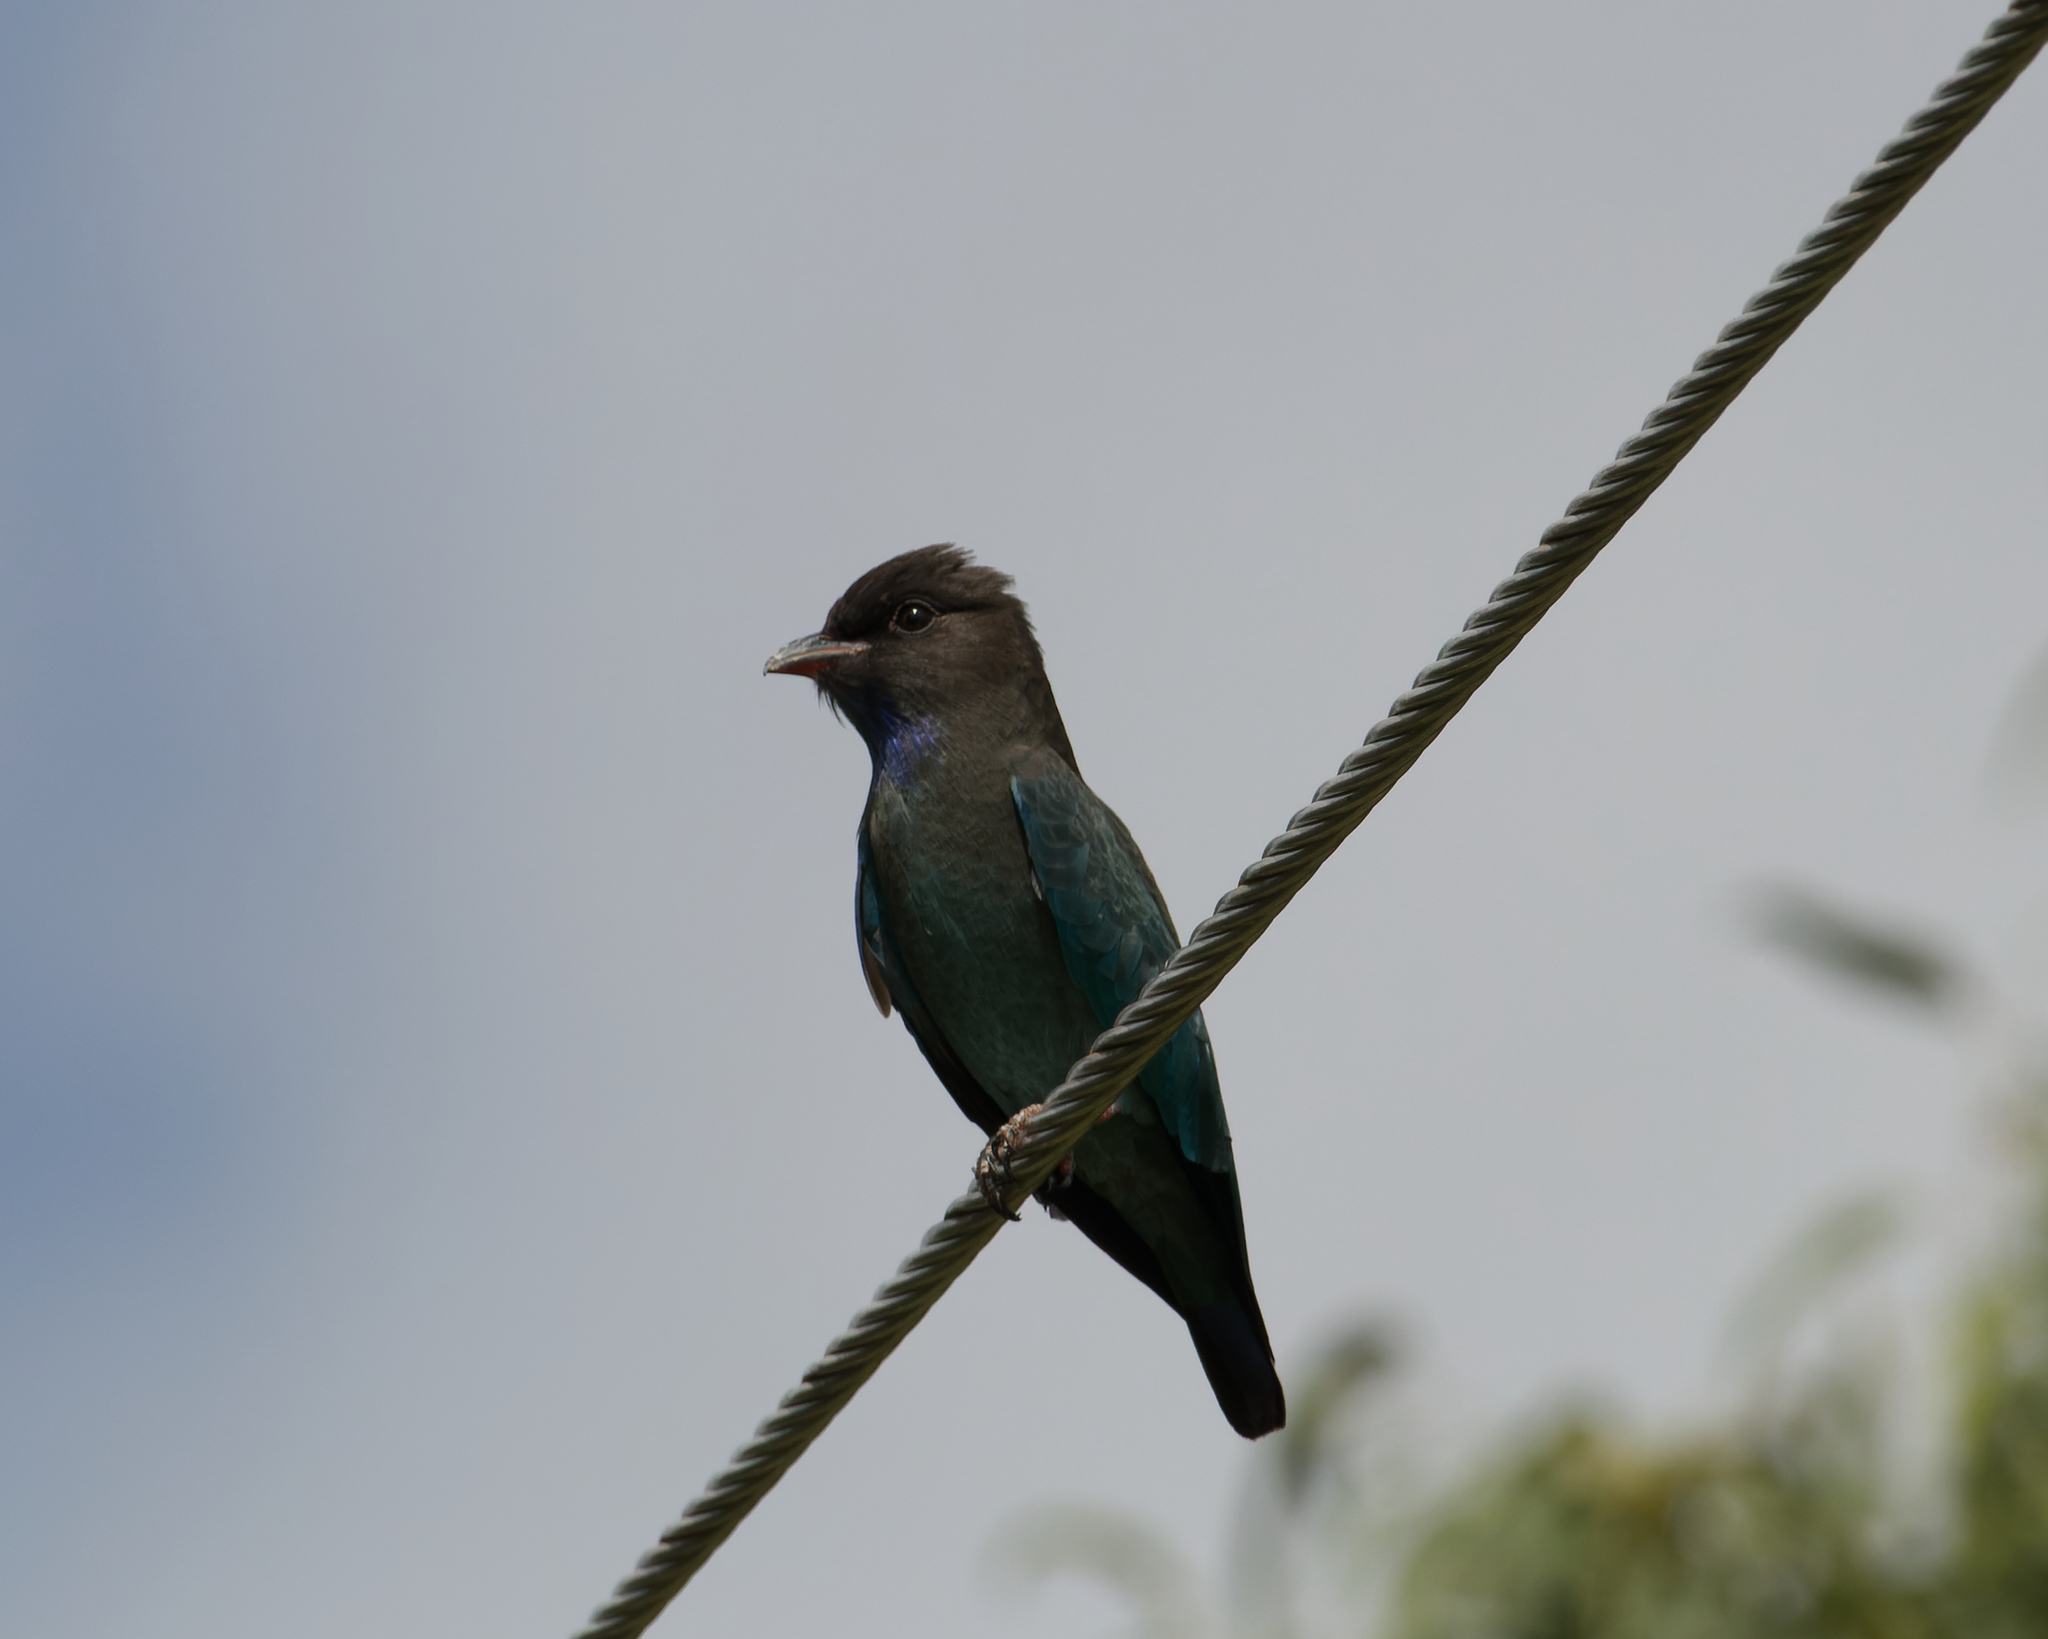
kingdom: Animalia
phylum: Chordata
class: Aves
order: Coraciiformes
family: Coraciidae
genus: Eurystomus
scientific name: Eurystomus orientalis
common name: Oriental dollarbird
